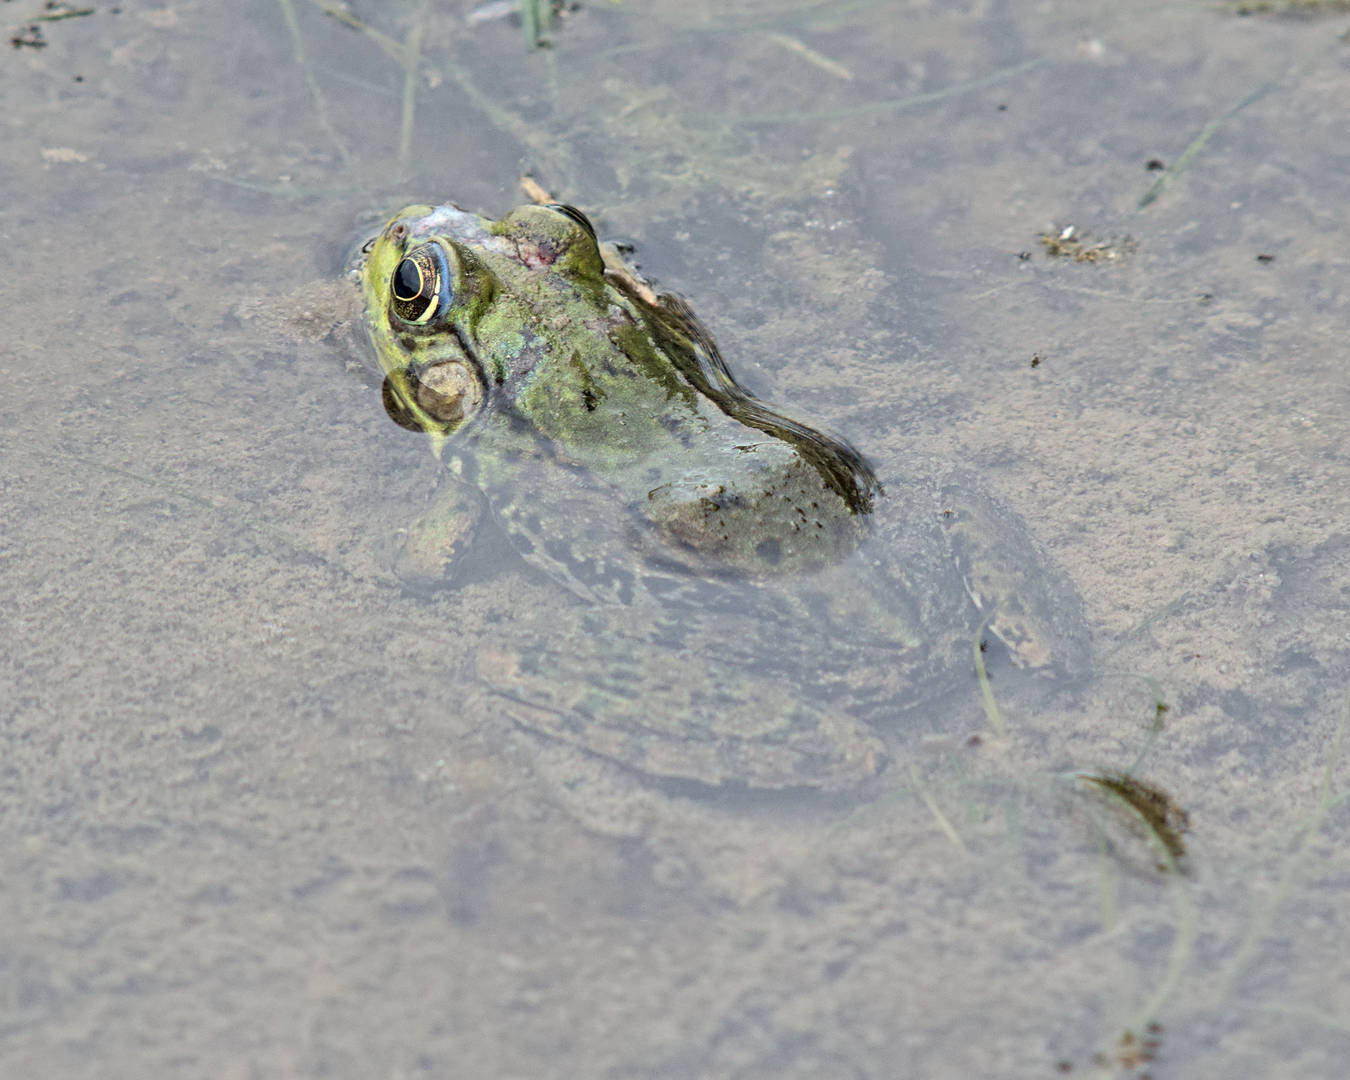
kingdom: Animalia
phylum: Chordata
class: Amphibia
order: Anura
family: Ranidae
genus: Lithobates
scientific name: Lithobates clamitans
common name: Green frog
